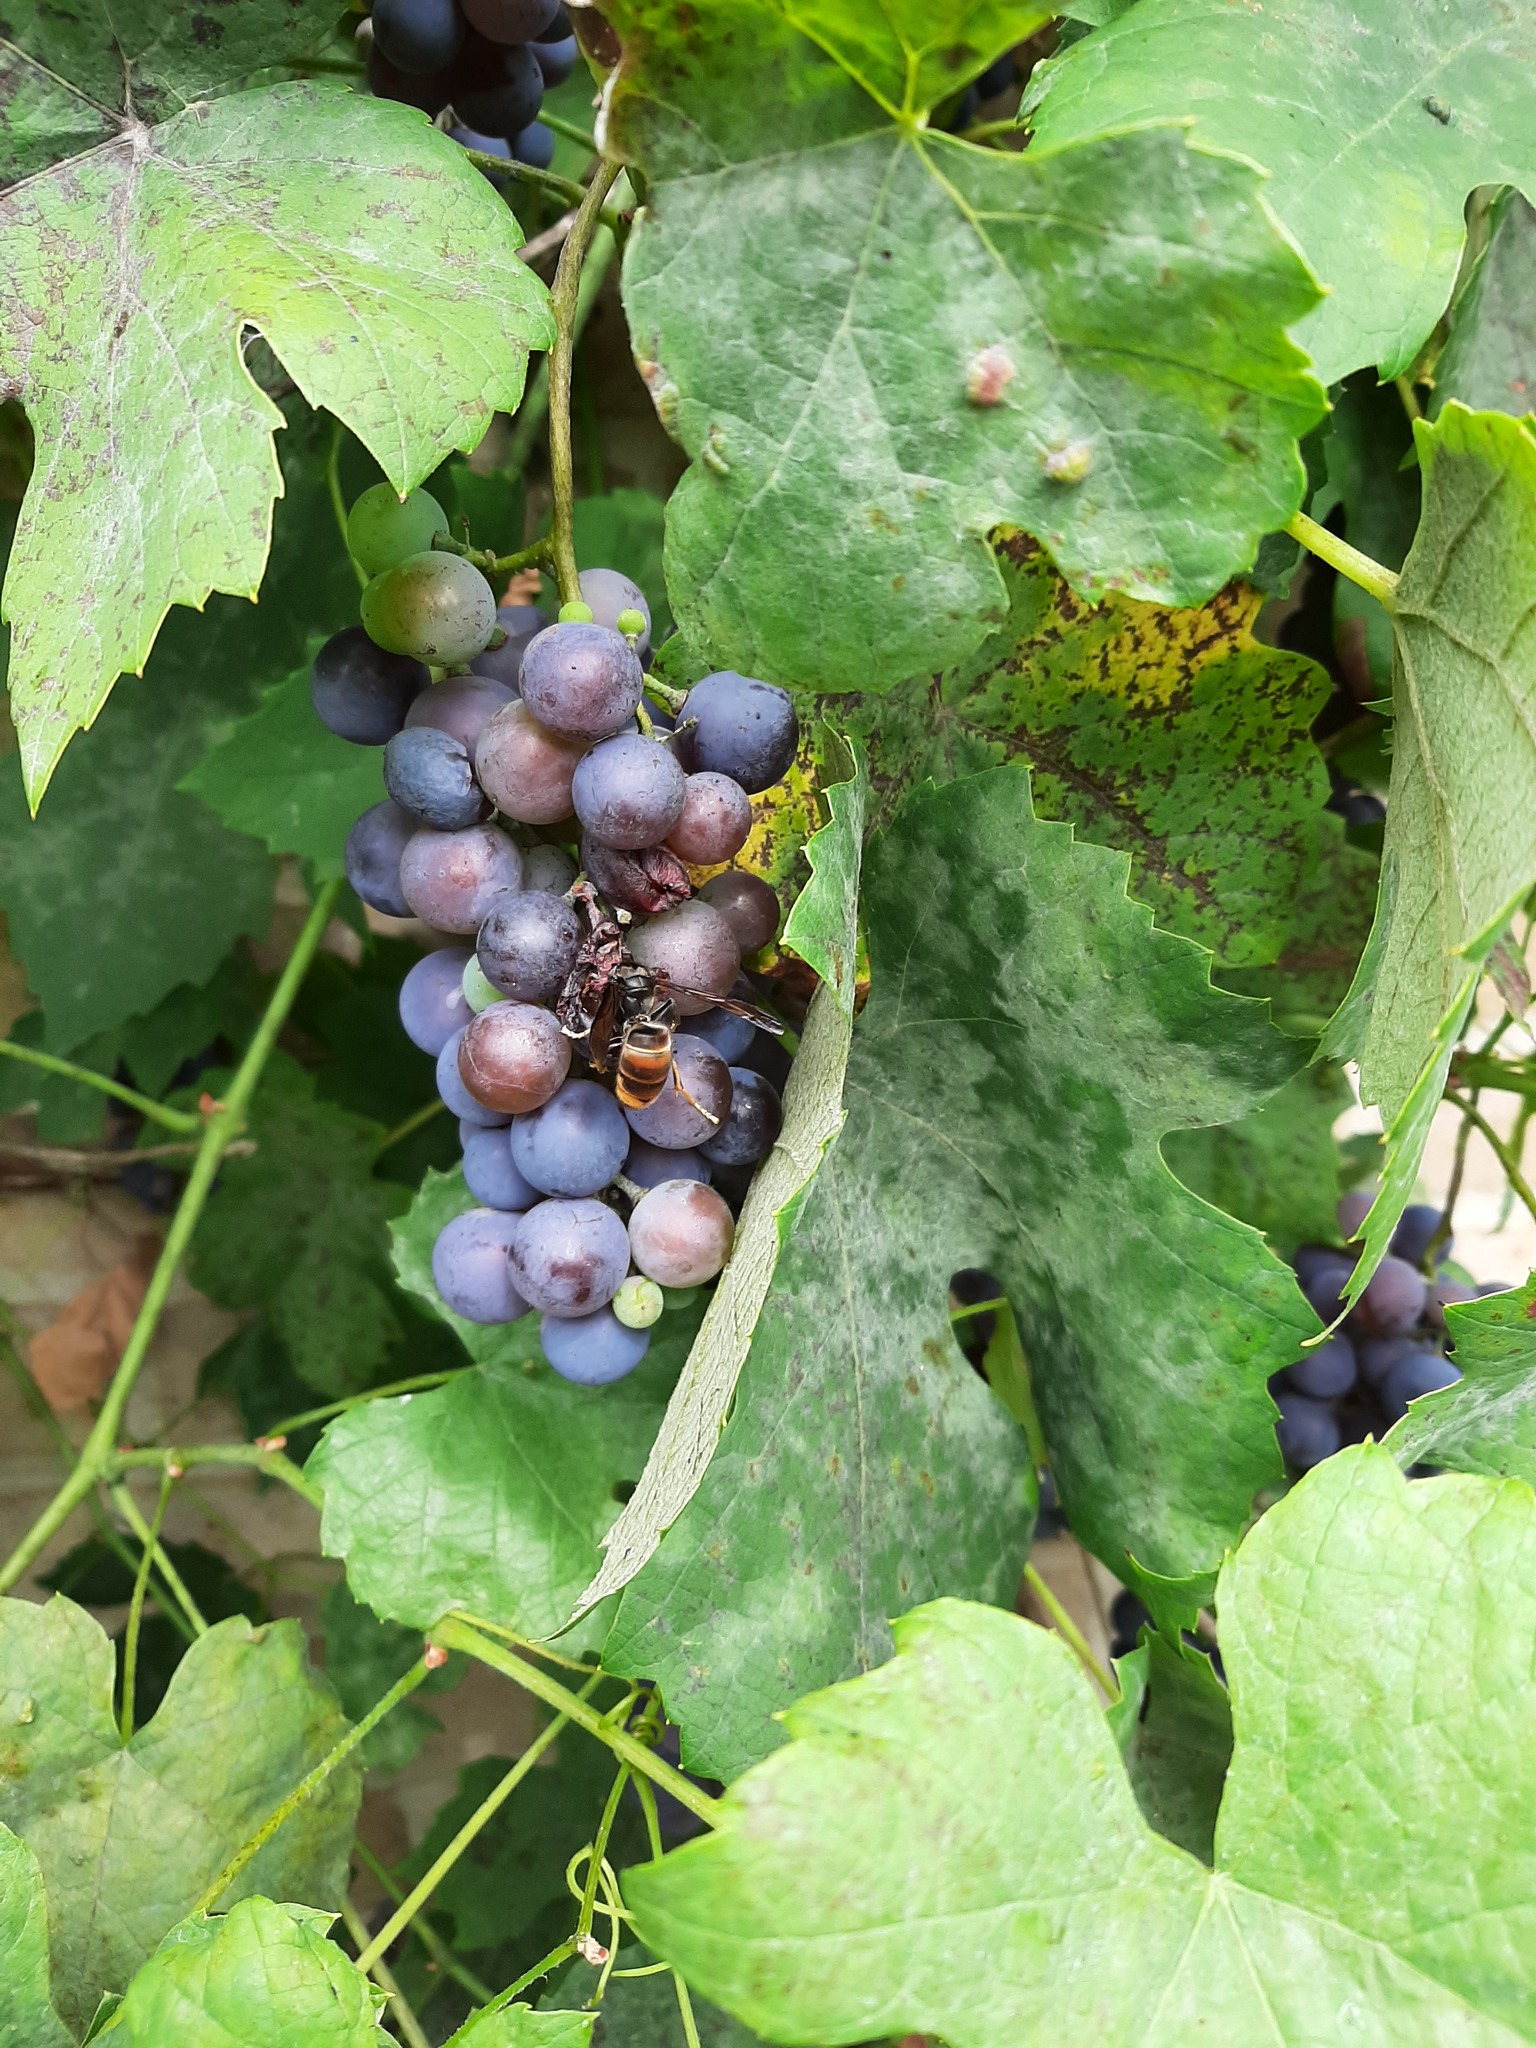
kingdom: Animalia
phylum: Arthropoda
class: Insecta
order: Hymenoptera
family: Vespidae
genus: Vespa
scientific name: Vespa velutina
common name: Asian hornet
